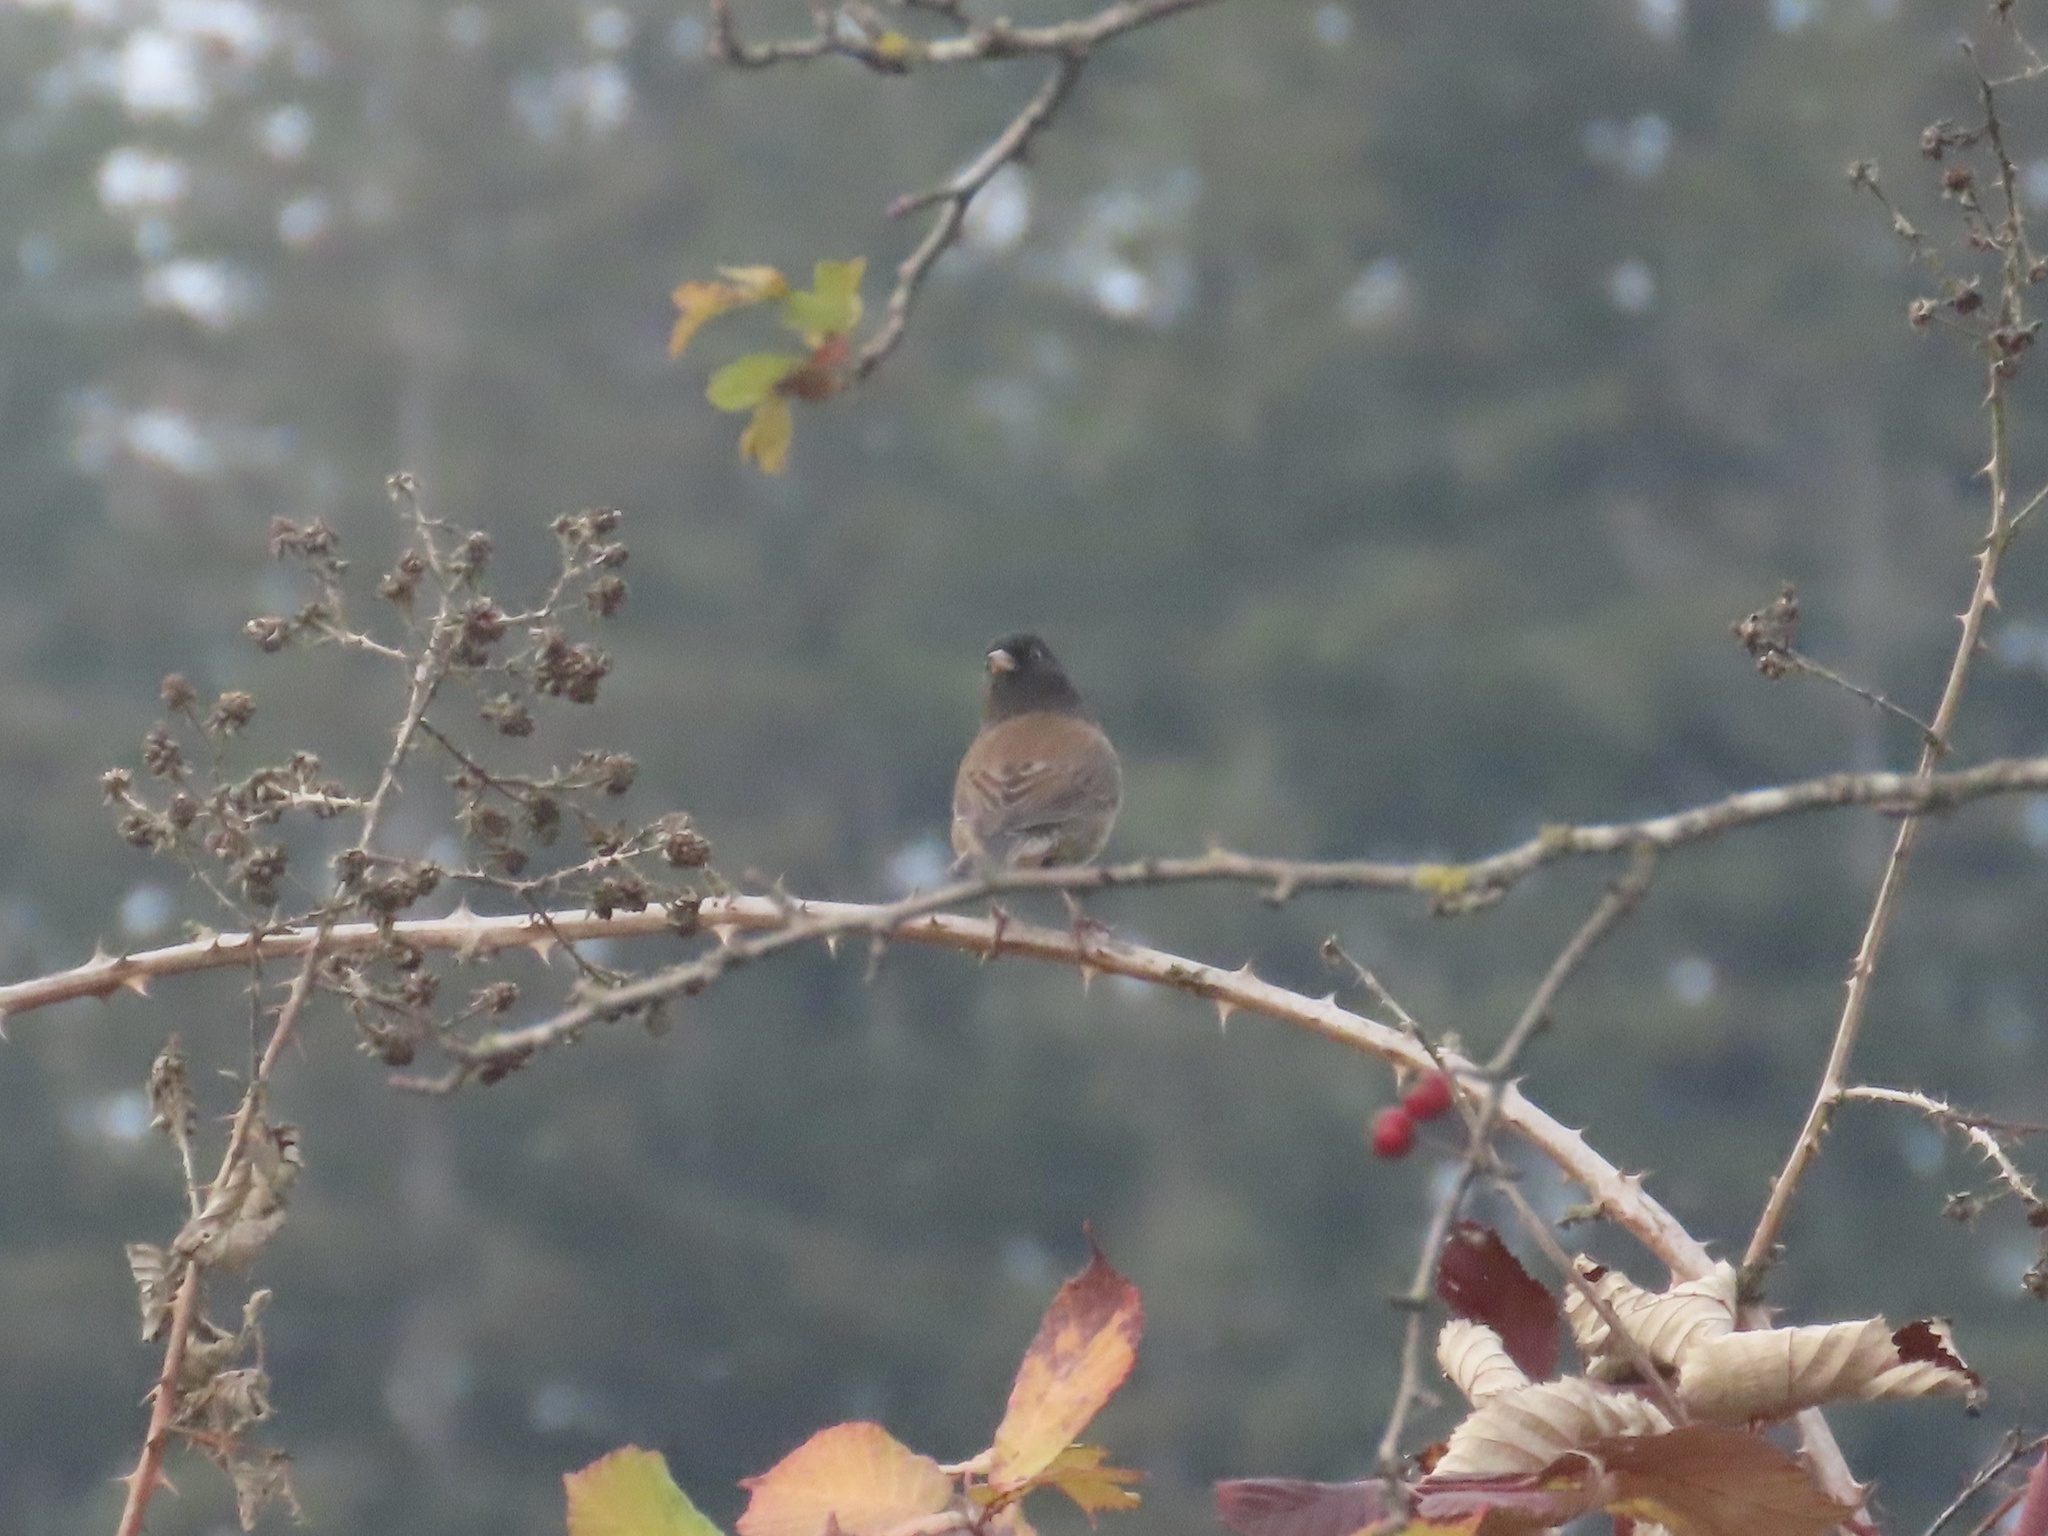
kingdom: Animalia
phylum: Chordata
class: Aves
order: Passeriformes
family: Passerellidae
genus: Junco
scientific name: Junco hyemalis
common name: Dark-eyed junco
